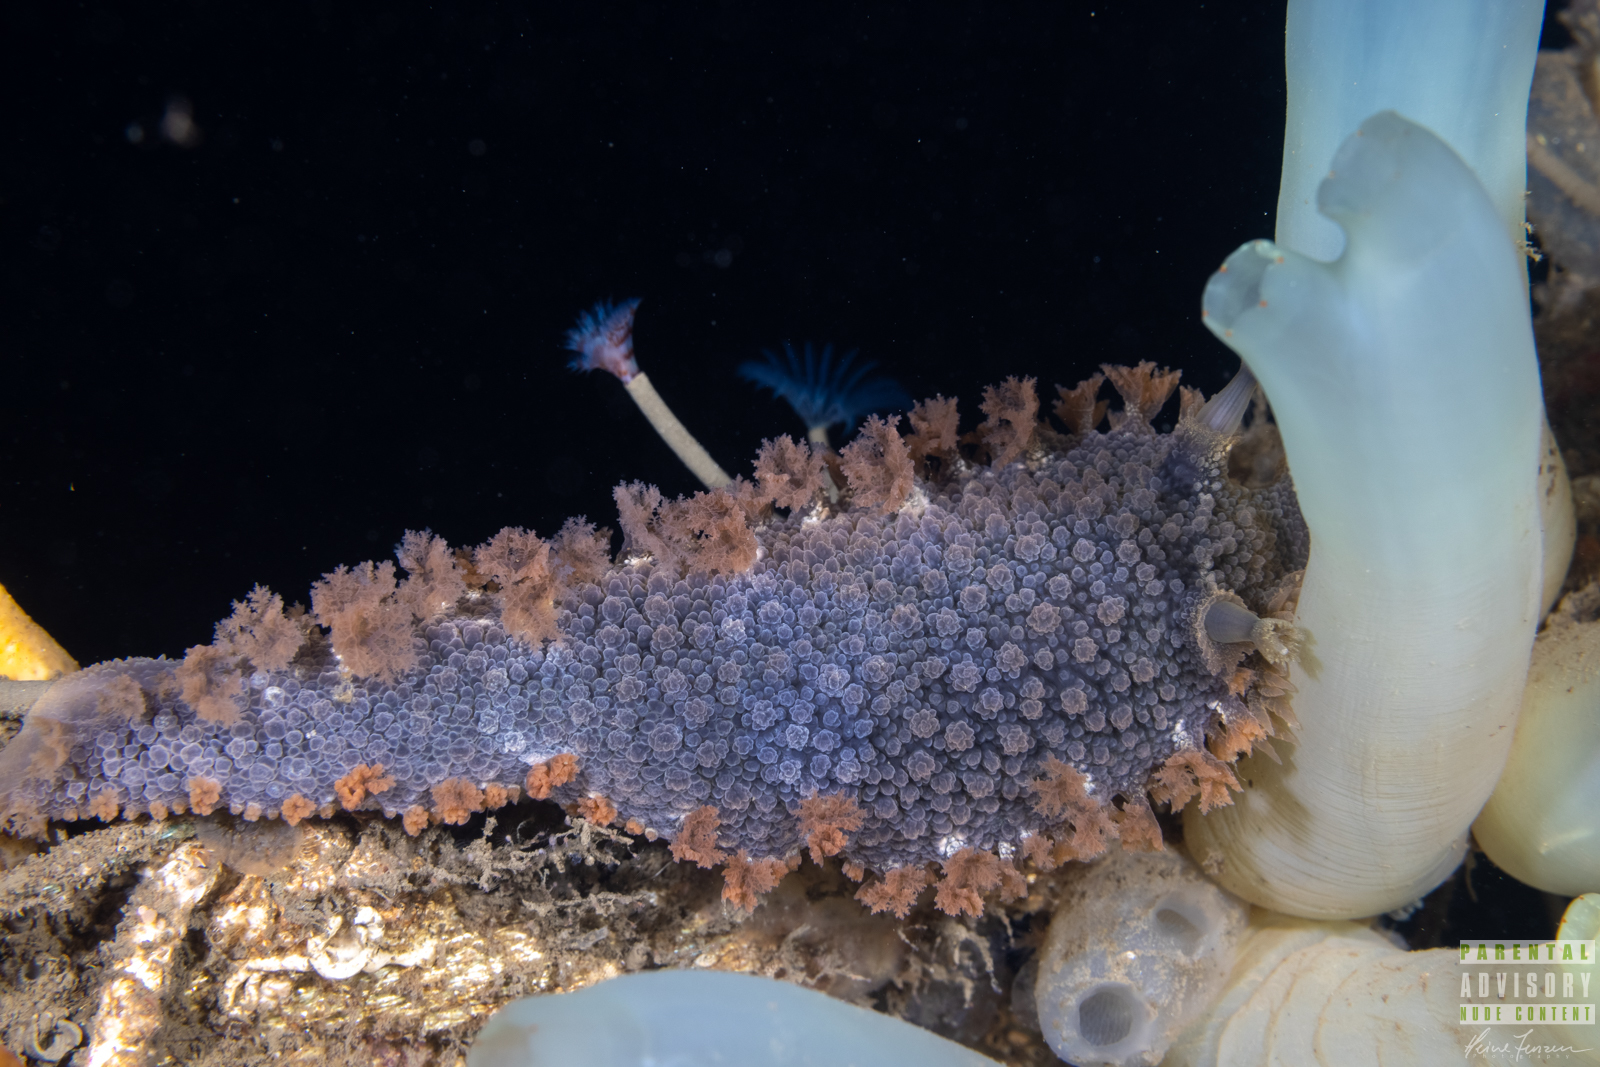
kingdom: Animalia
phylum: Mollusca
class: Gastropoda
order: Nudibranchia
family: Tritoniidae
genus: Tritonia
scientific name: Tritonia hombergii
